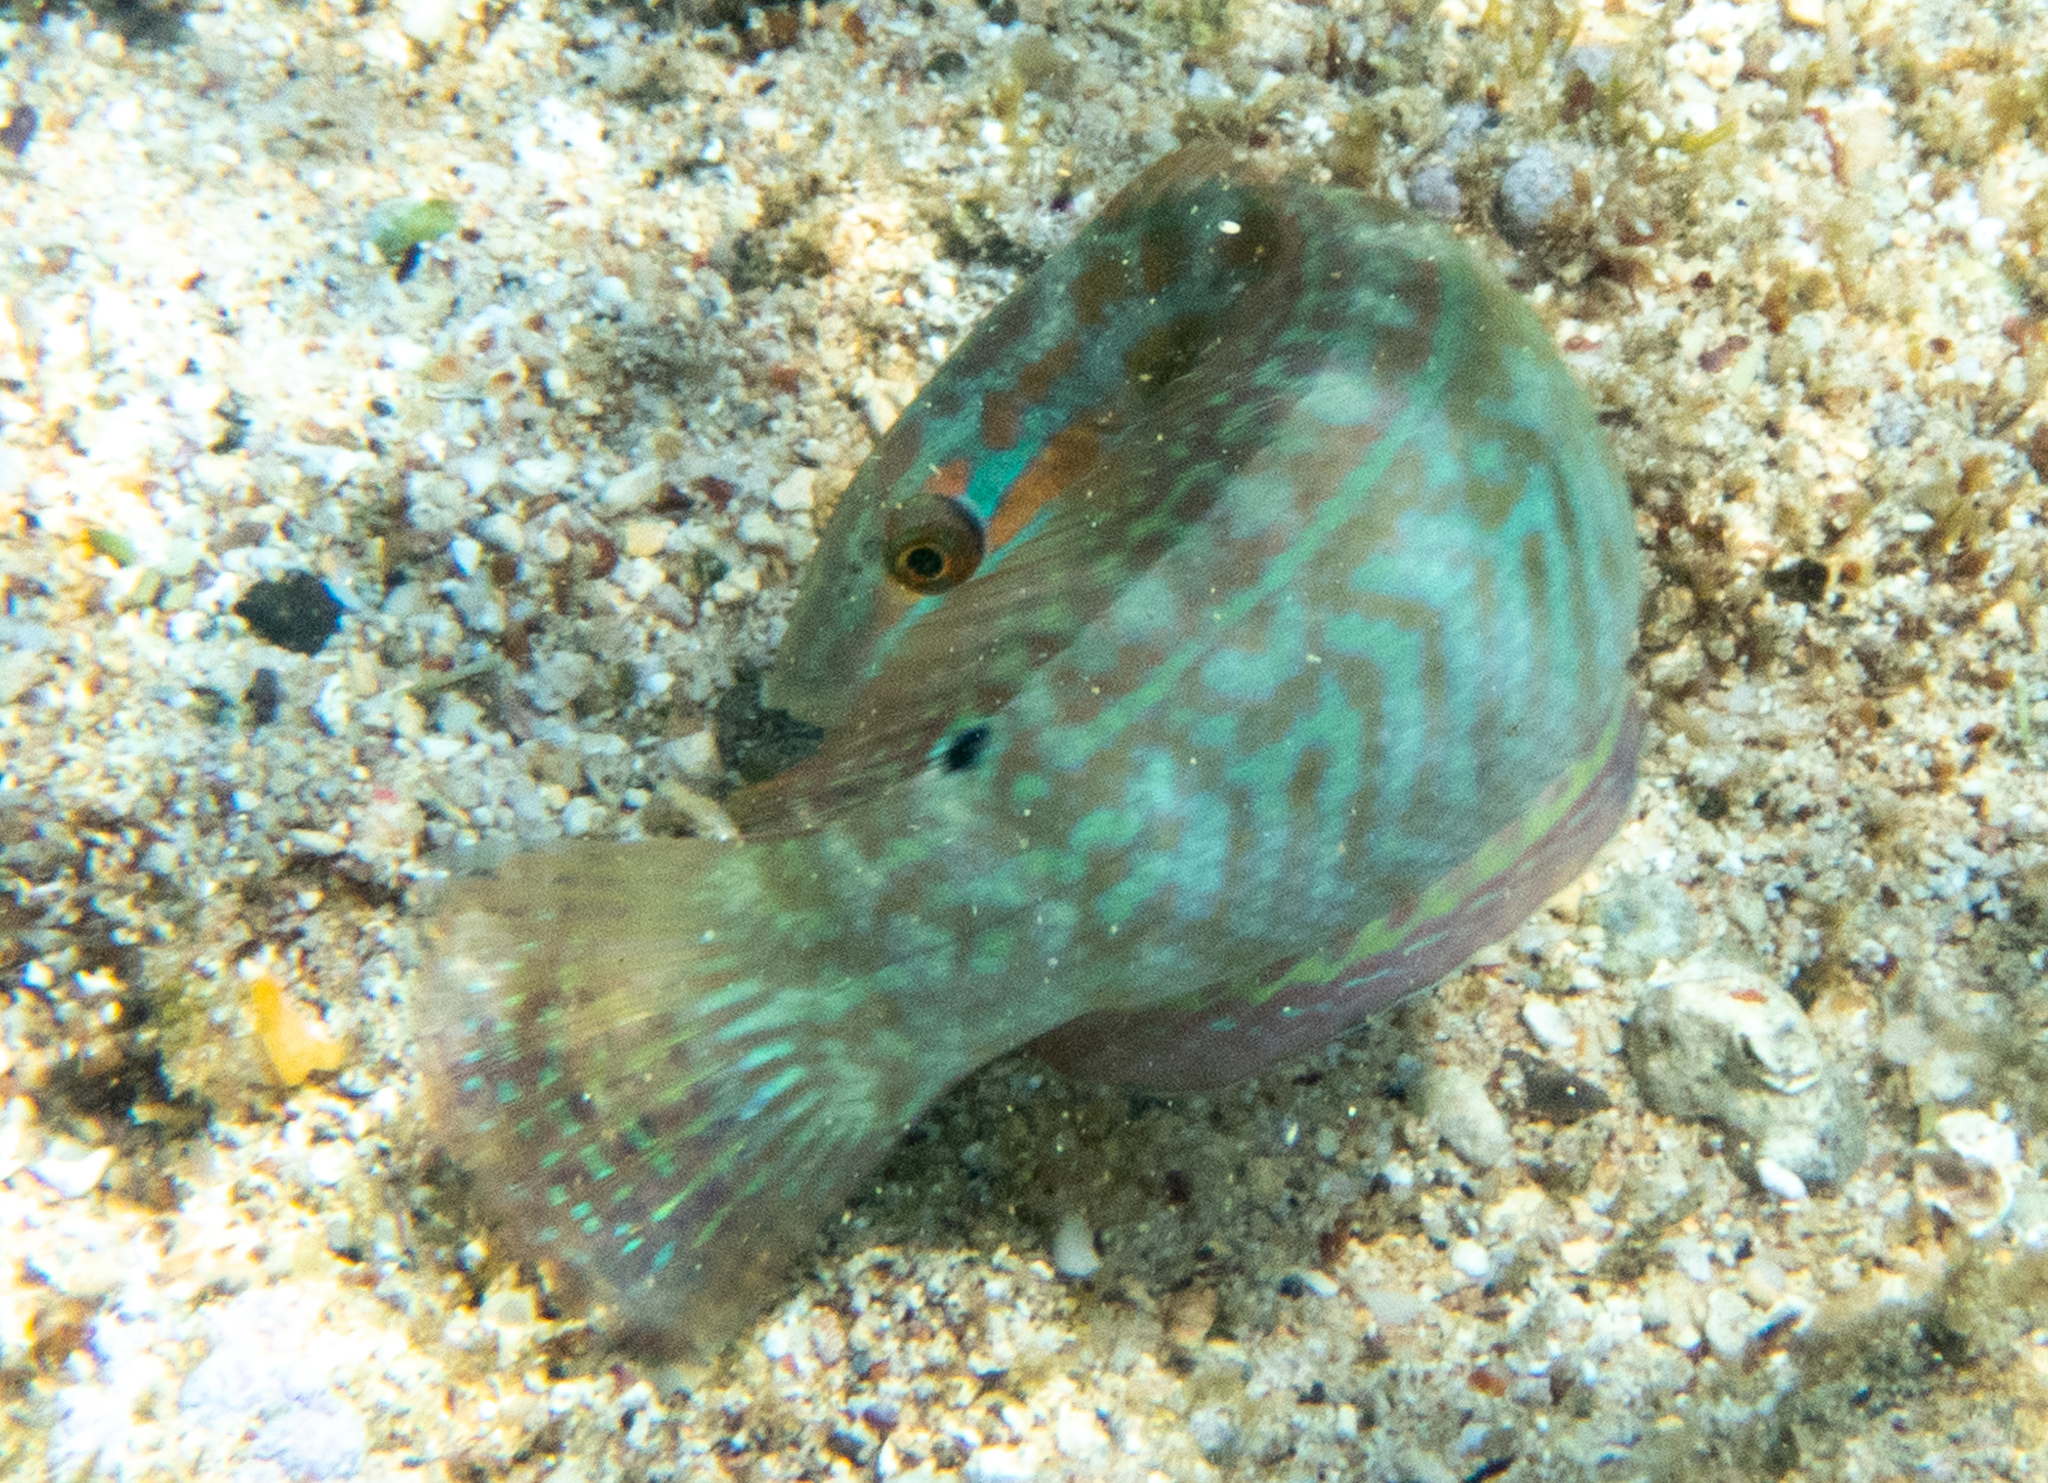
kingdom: Animalia
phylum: Chordata
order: Perciformes
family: Labridae
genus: Coris
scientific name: Coris venusta
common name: Elegant coris
